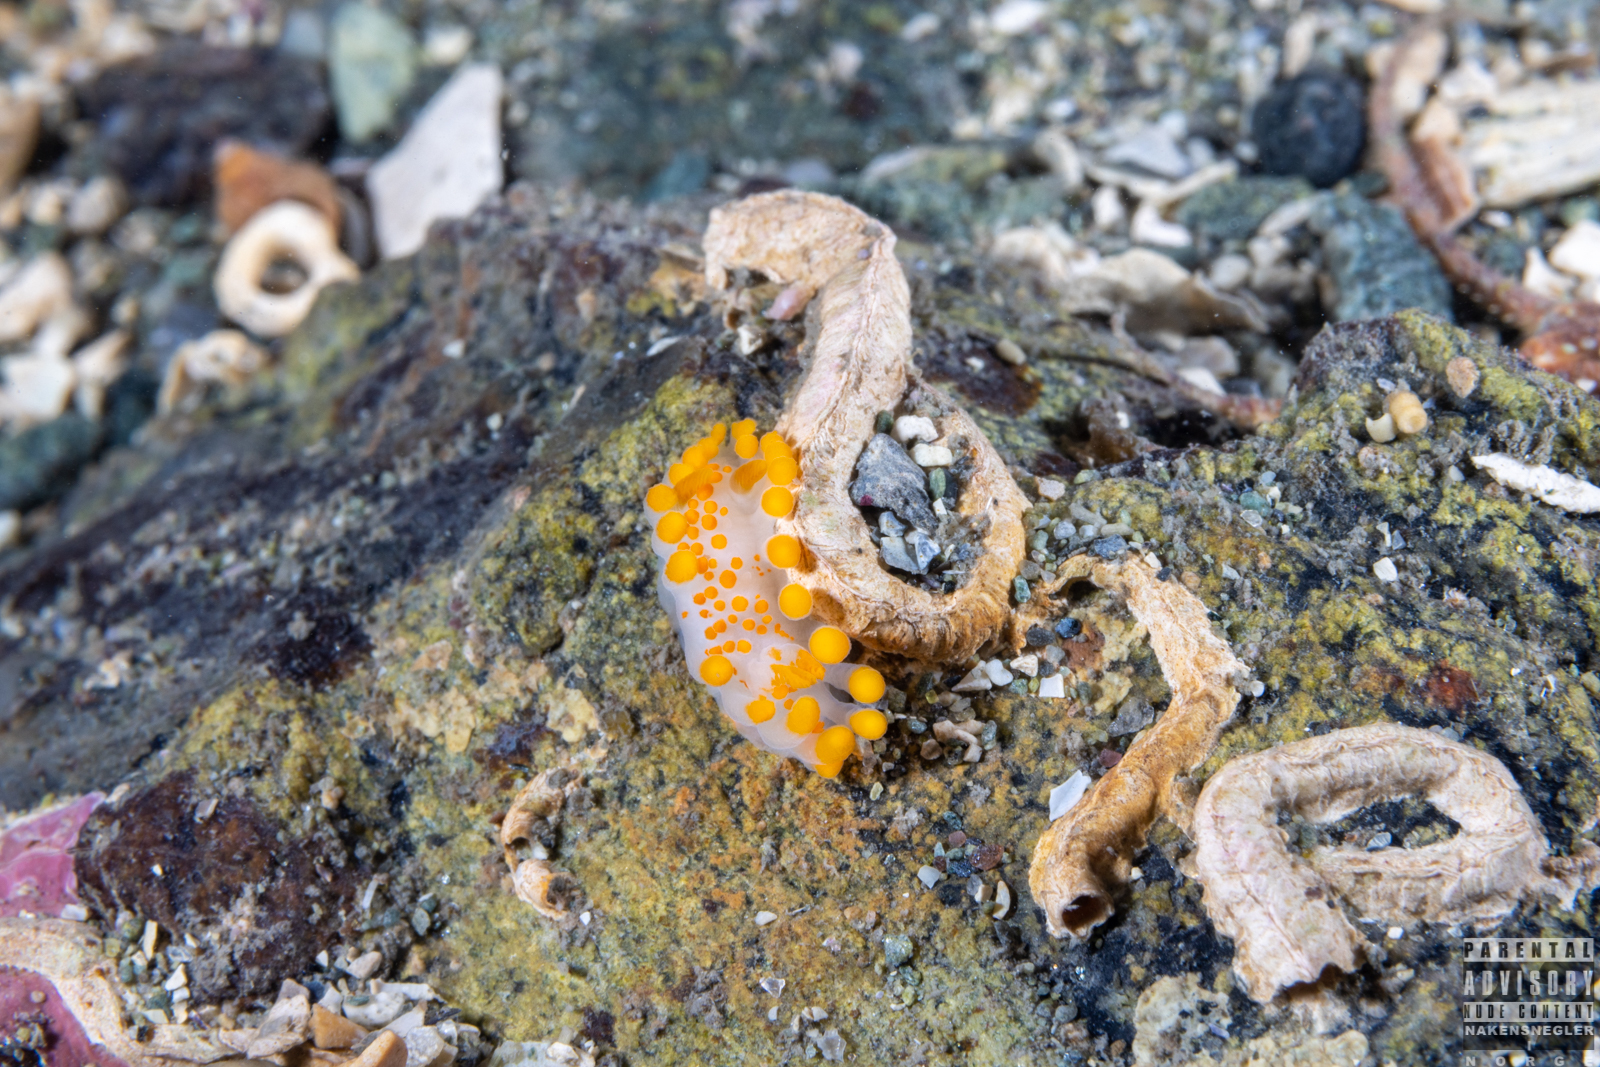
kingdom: Animalia
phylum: Mollusca
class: Gastropoda
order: Nudibranchia
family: Polyceridae
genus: Limacia
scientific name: Limacia clavigera
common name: Orange-clubbed sea slug
